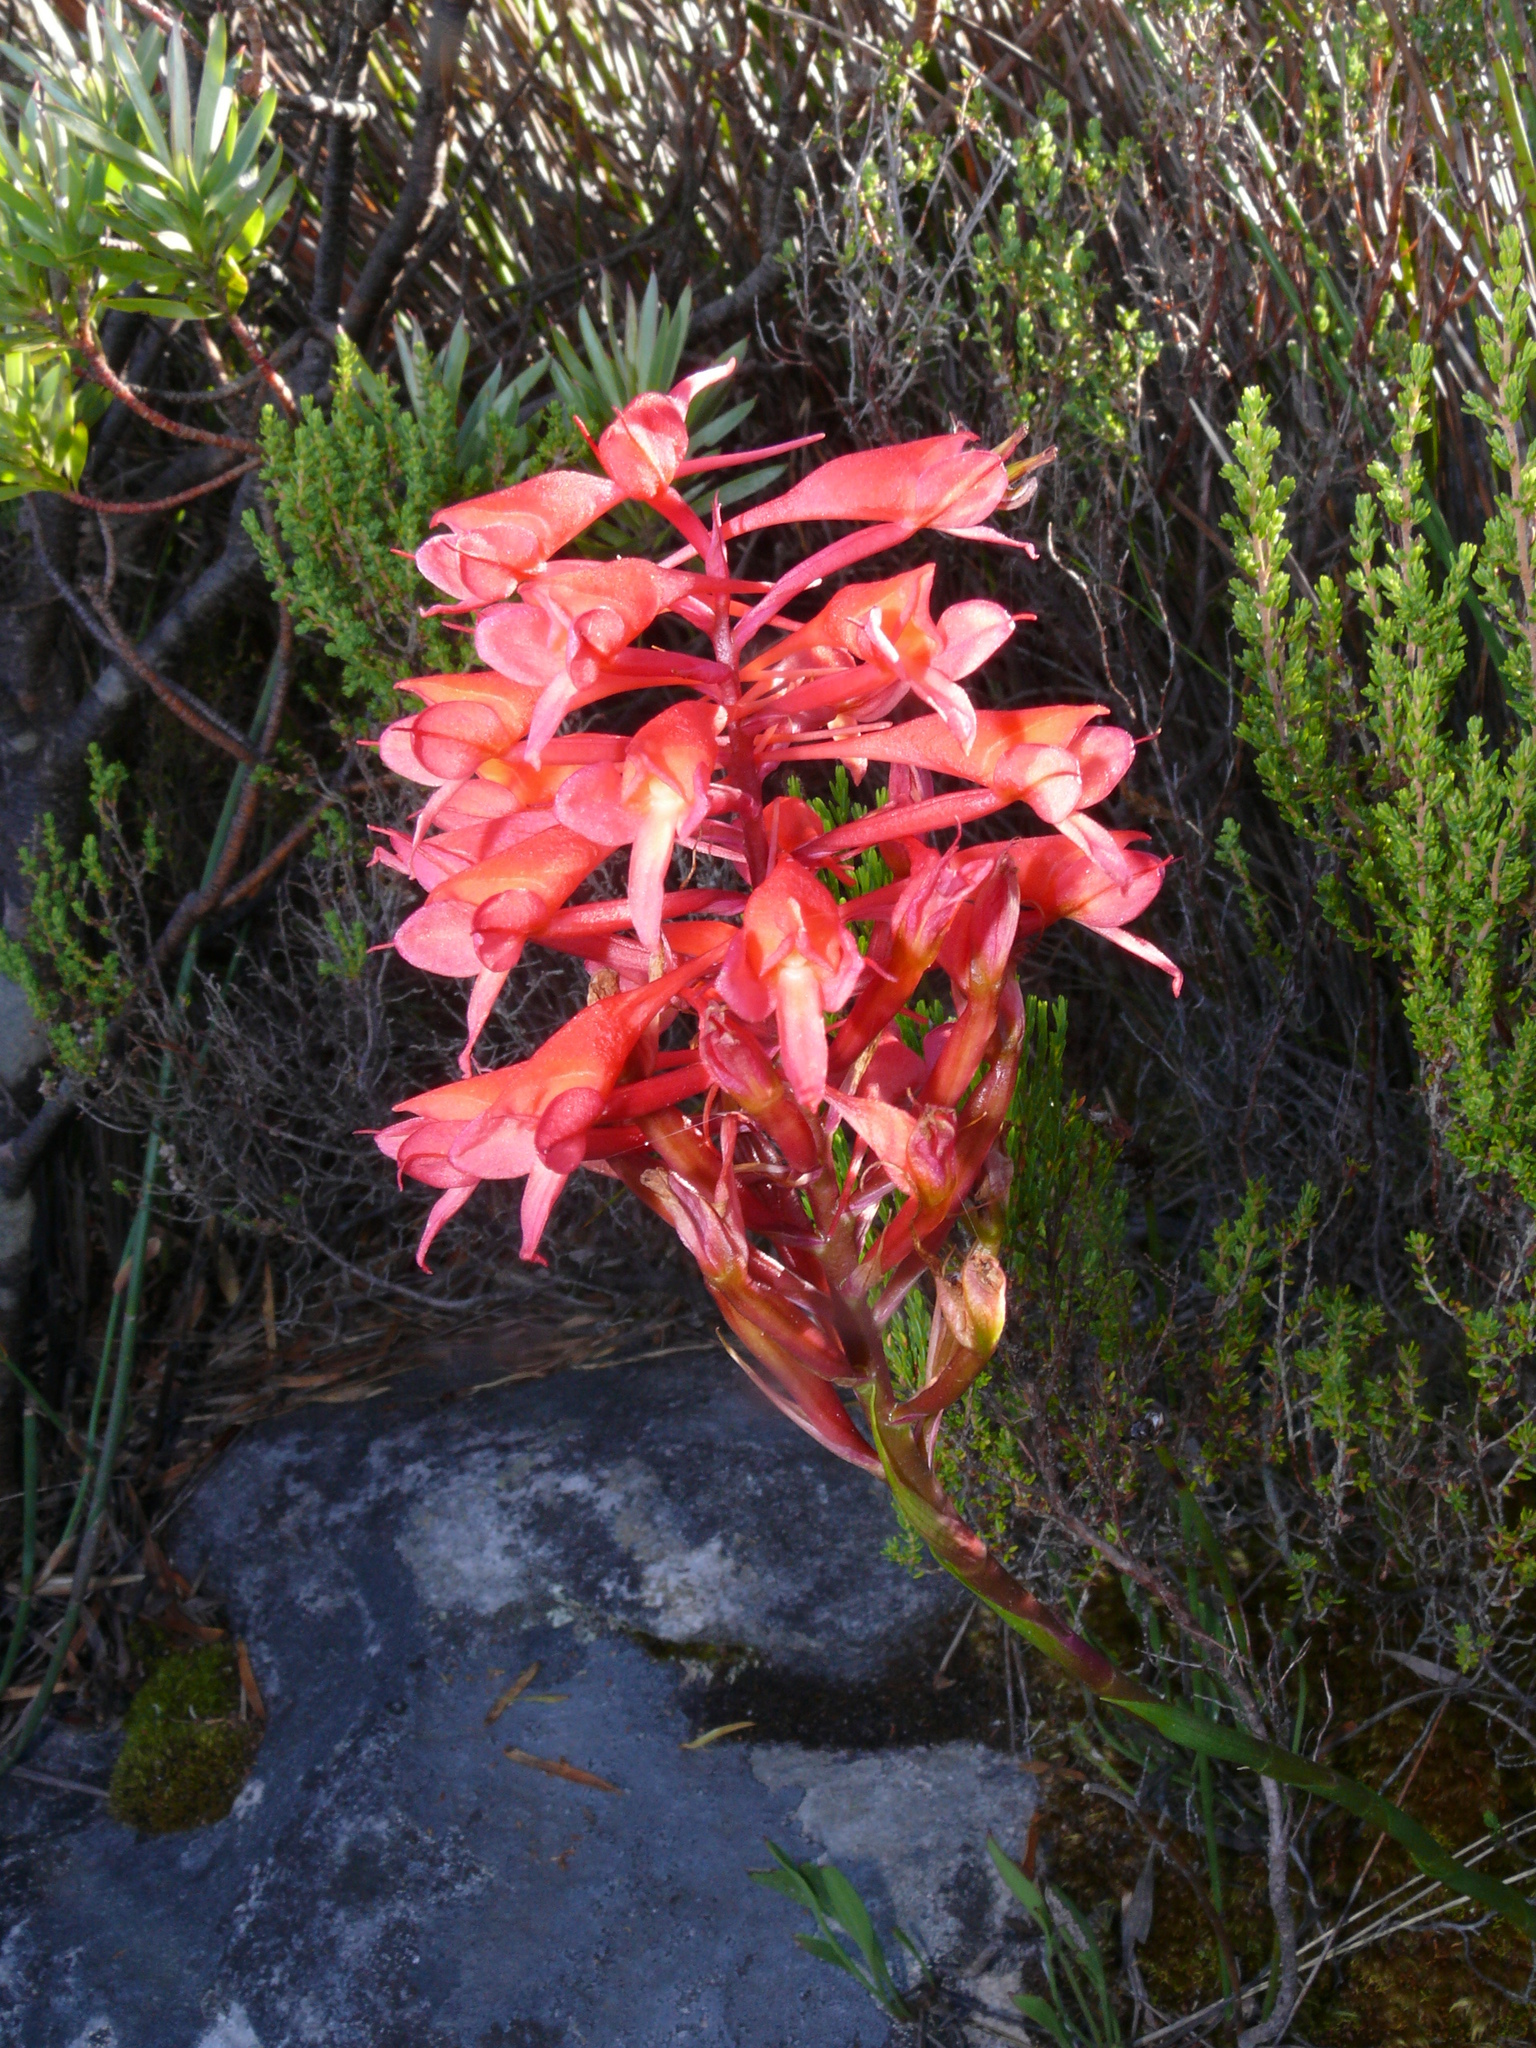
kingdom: Plantae
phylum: Tracheophyta
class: Liliopsida
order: Asparagales
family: Orchidaceae
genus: Disa
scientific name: Disa ferruginea
